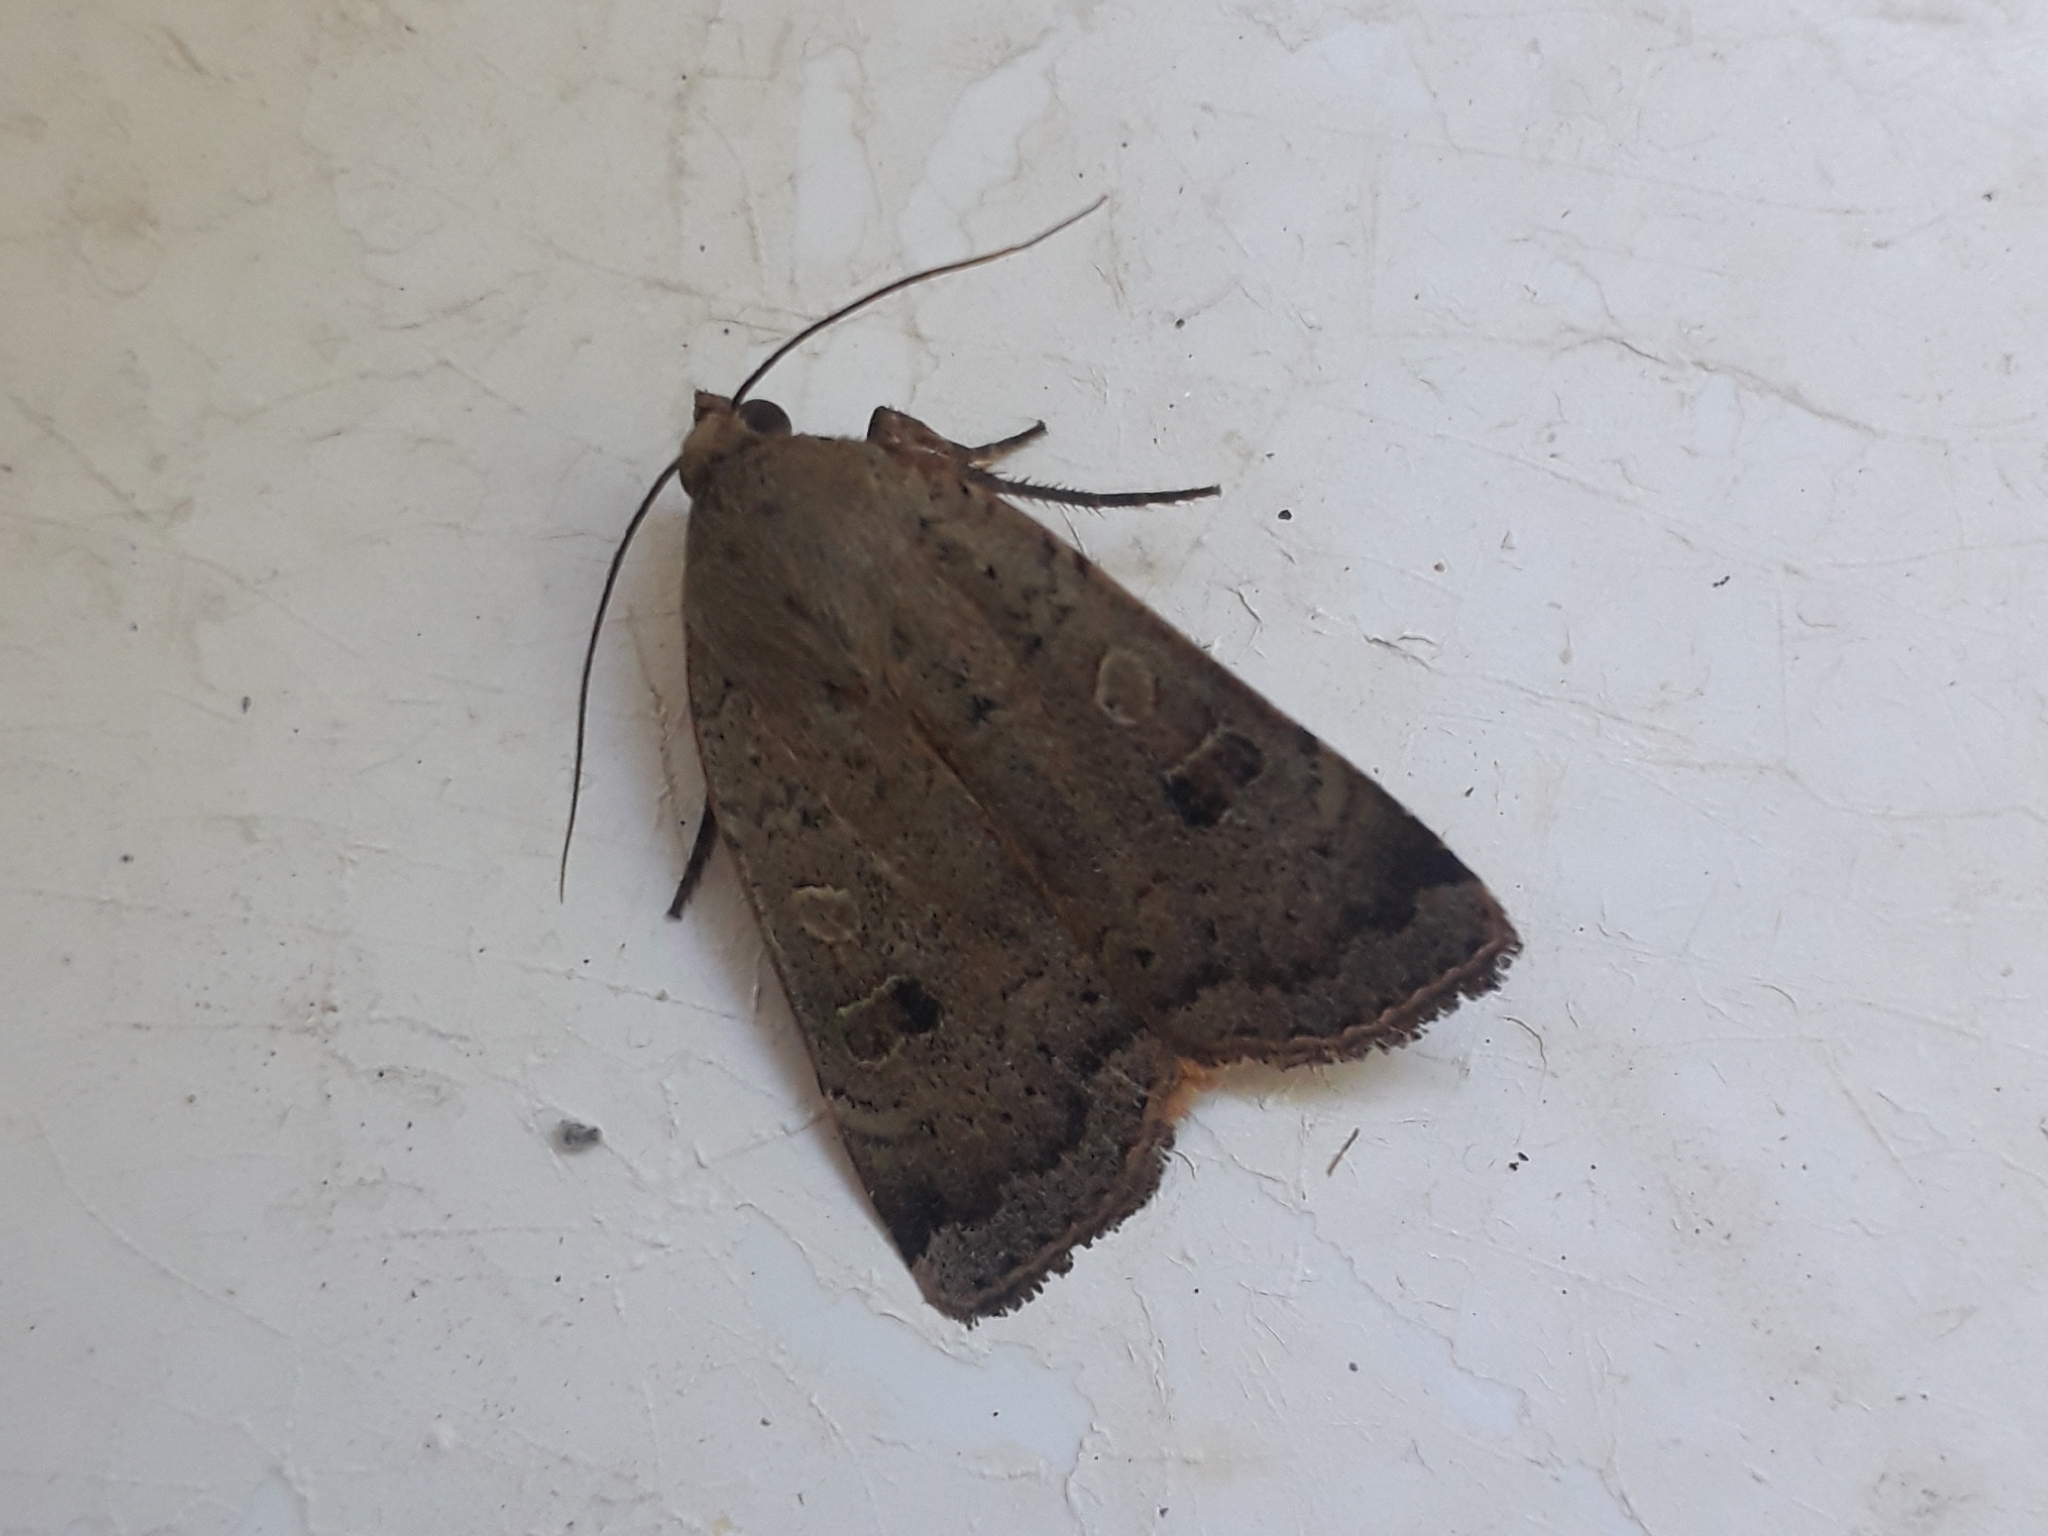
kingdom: Animalia
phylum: Arthropoda
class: Insecta
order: Lepidoptera
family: Noctuidae
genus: Noctua
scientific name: Noctua comes
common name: Lesser yellow underwing
